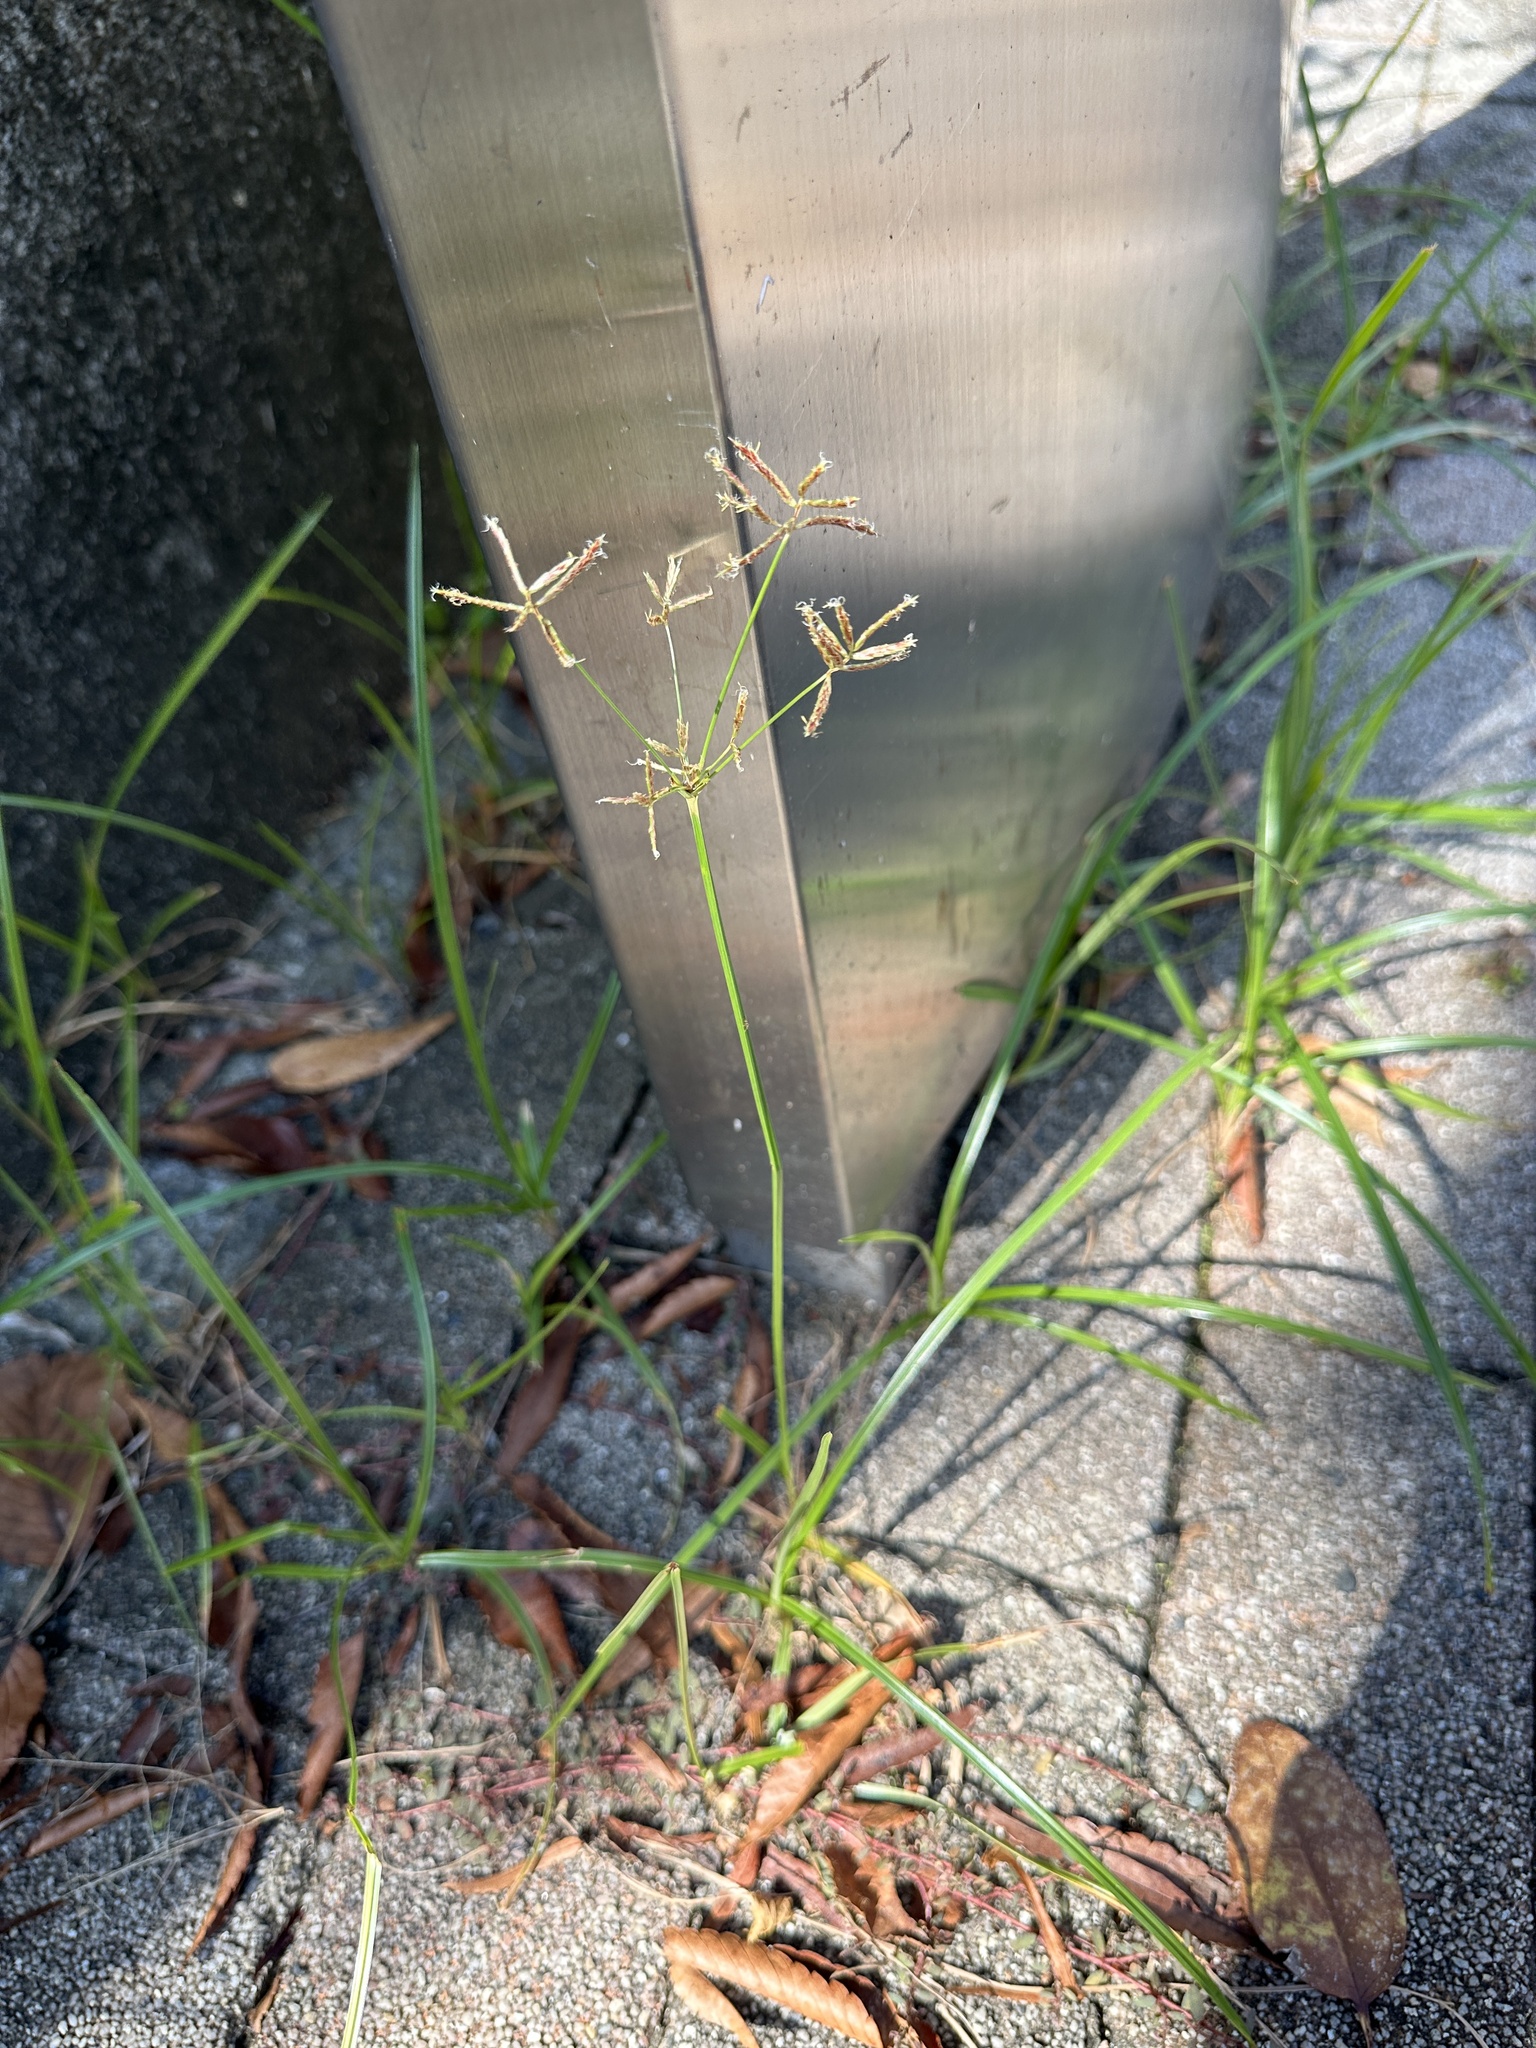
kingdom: Plantae
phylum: Tracheophyta
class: Liliopsida
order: Poales
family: Cyperaceae
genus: Cyperus
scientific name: Cyperus rotundus
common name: Nutgrass
